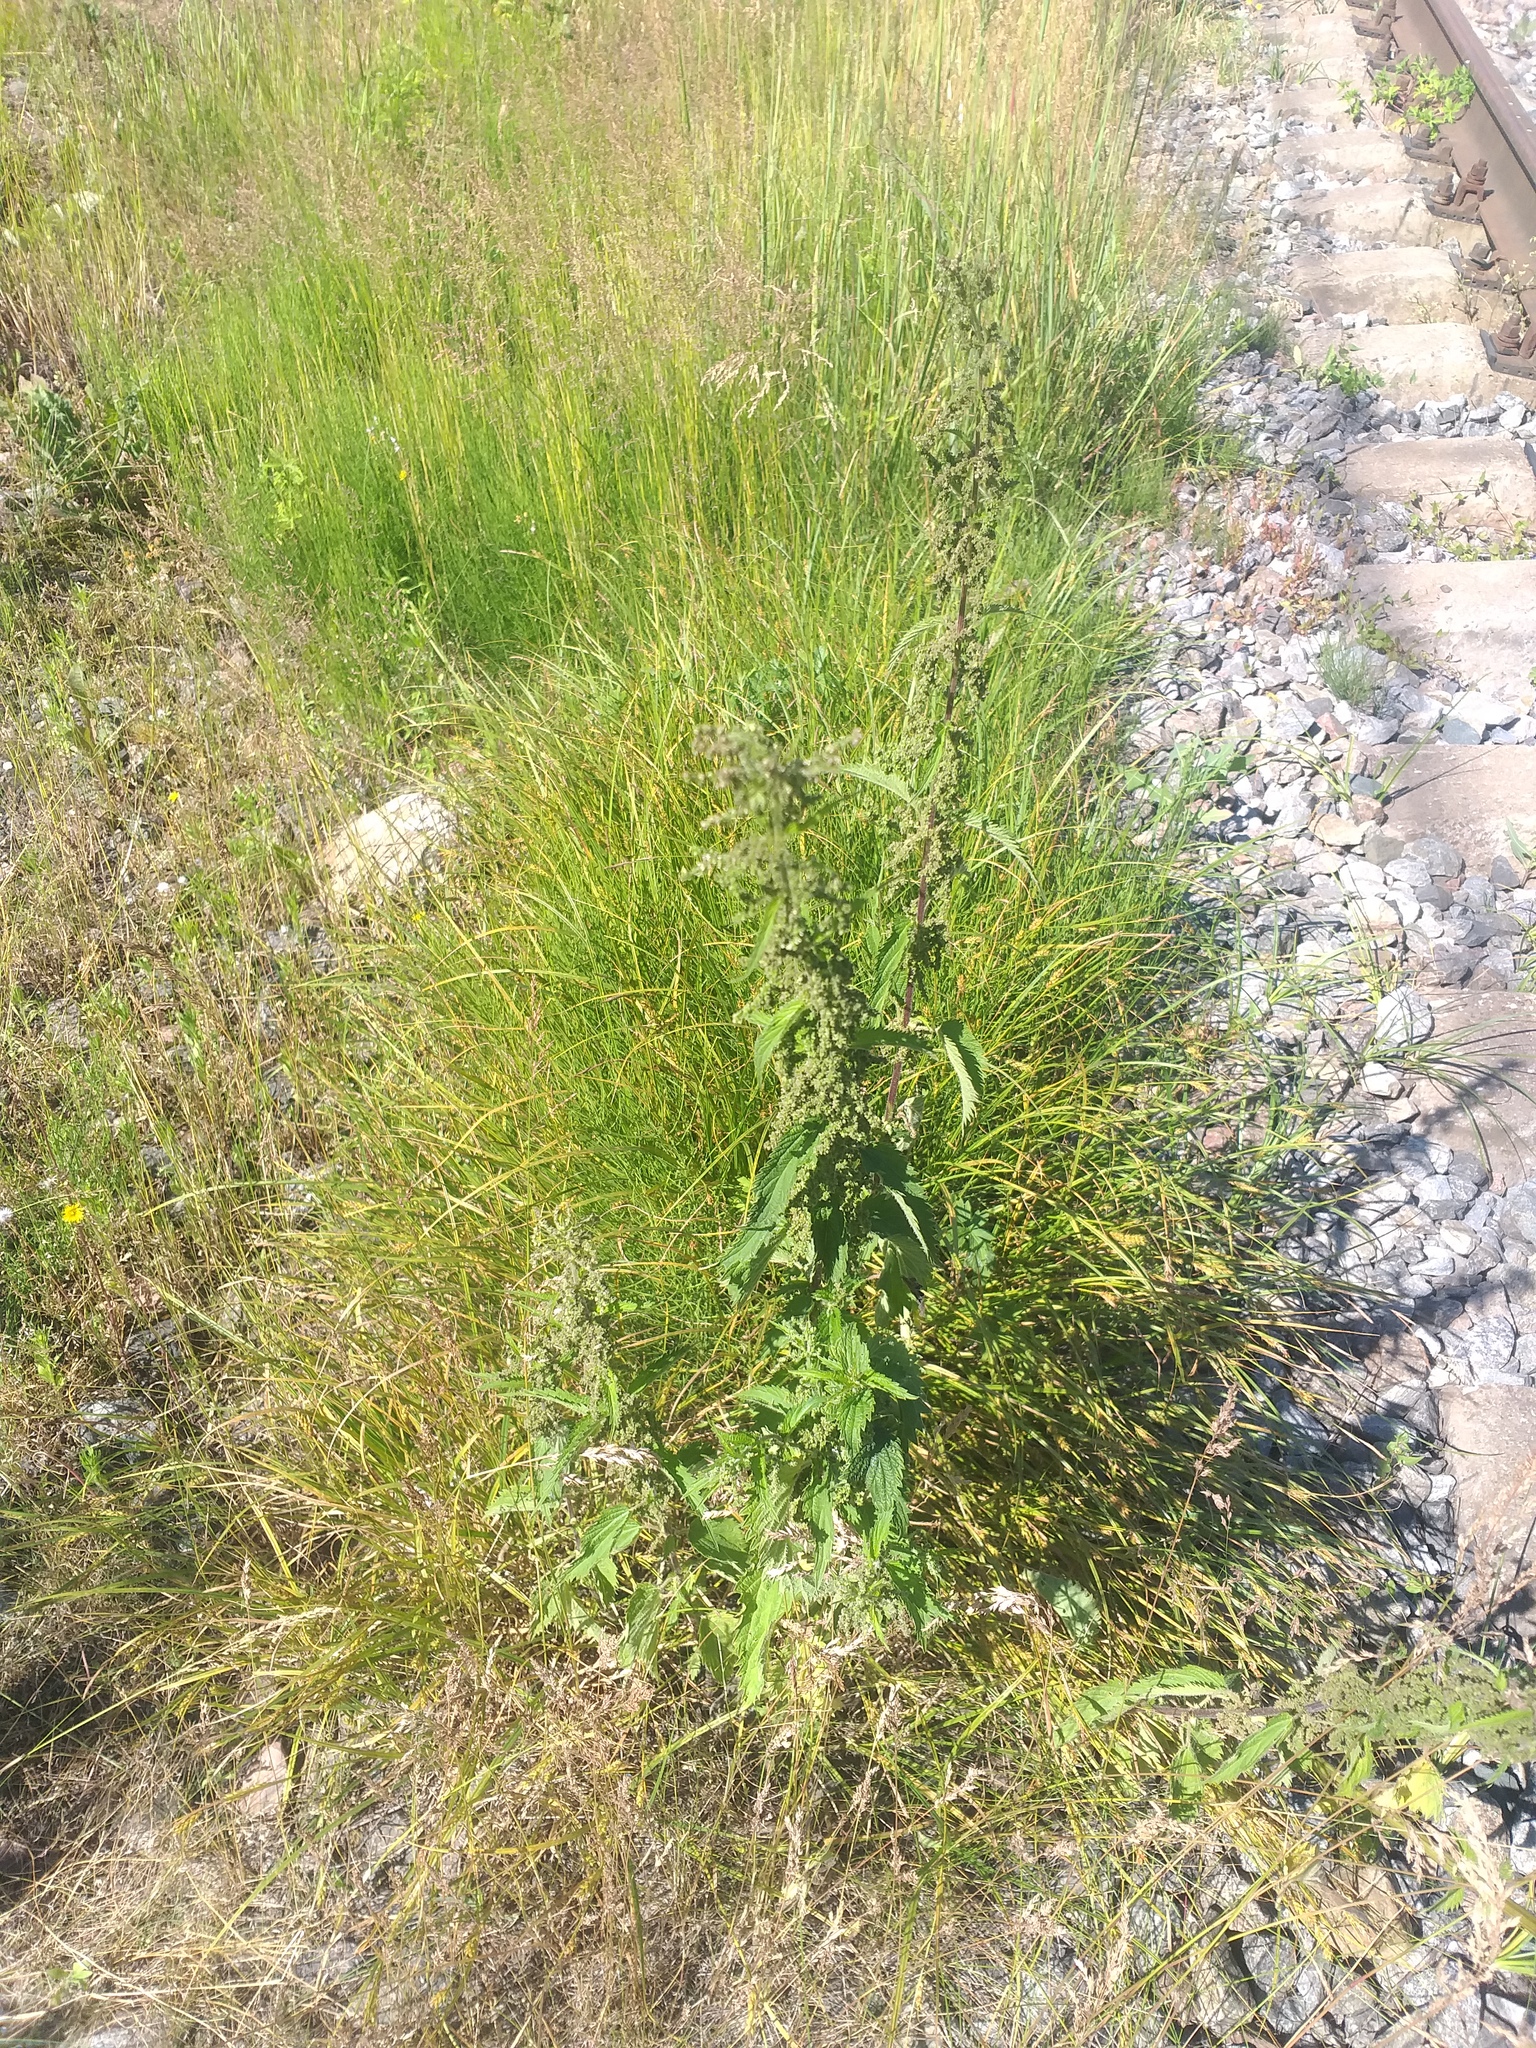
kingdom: Plantae
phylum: Tracheophyta
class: Magnoliopsida
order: Rosales
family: Urticaceae
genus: Urtica
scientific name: Urtica dioica
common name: Common nettle
